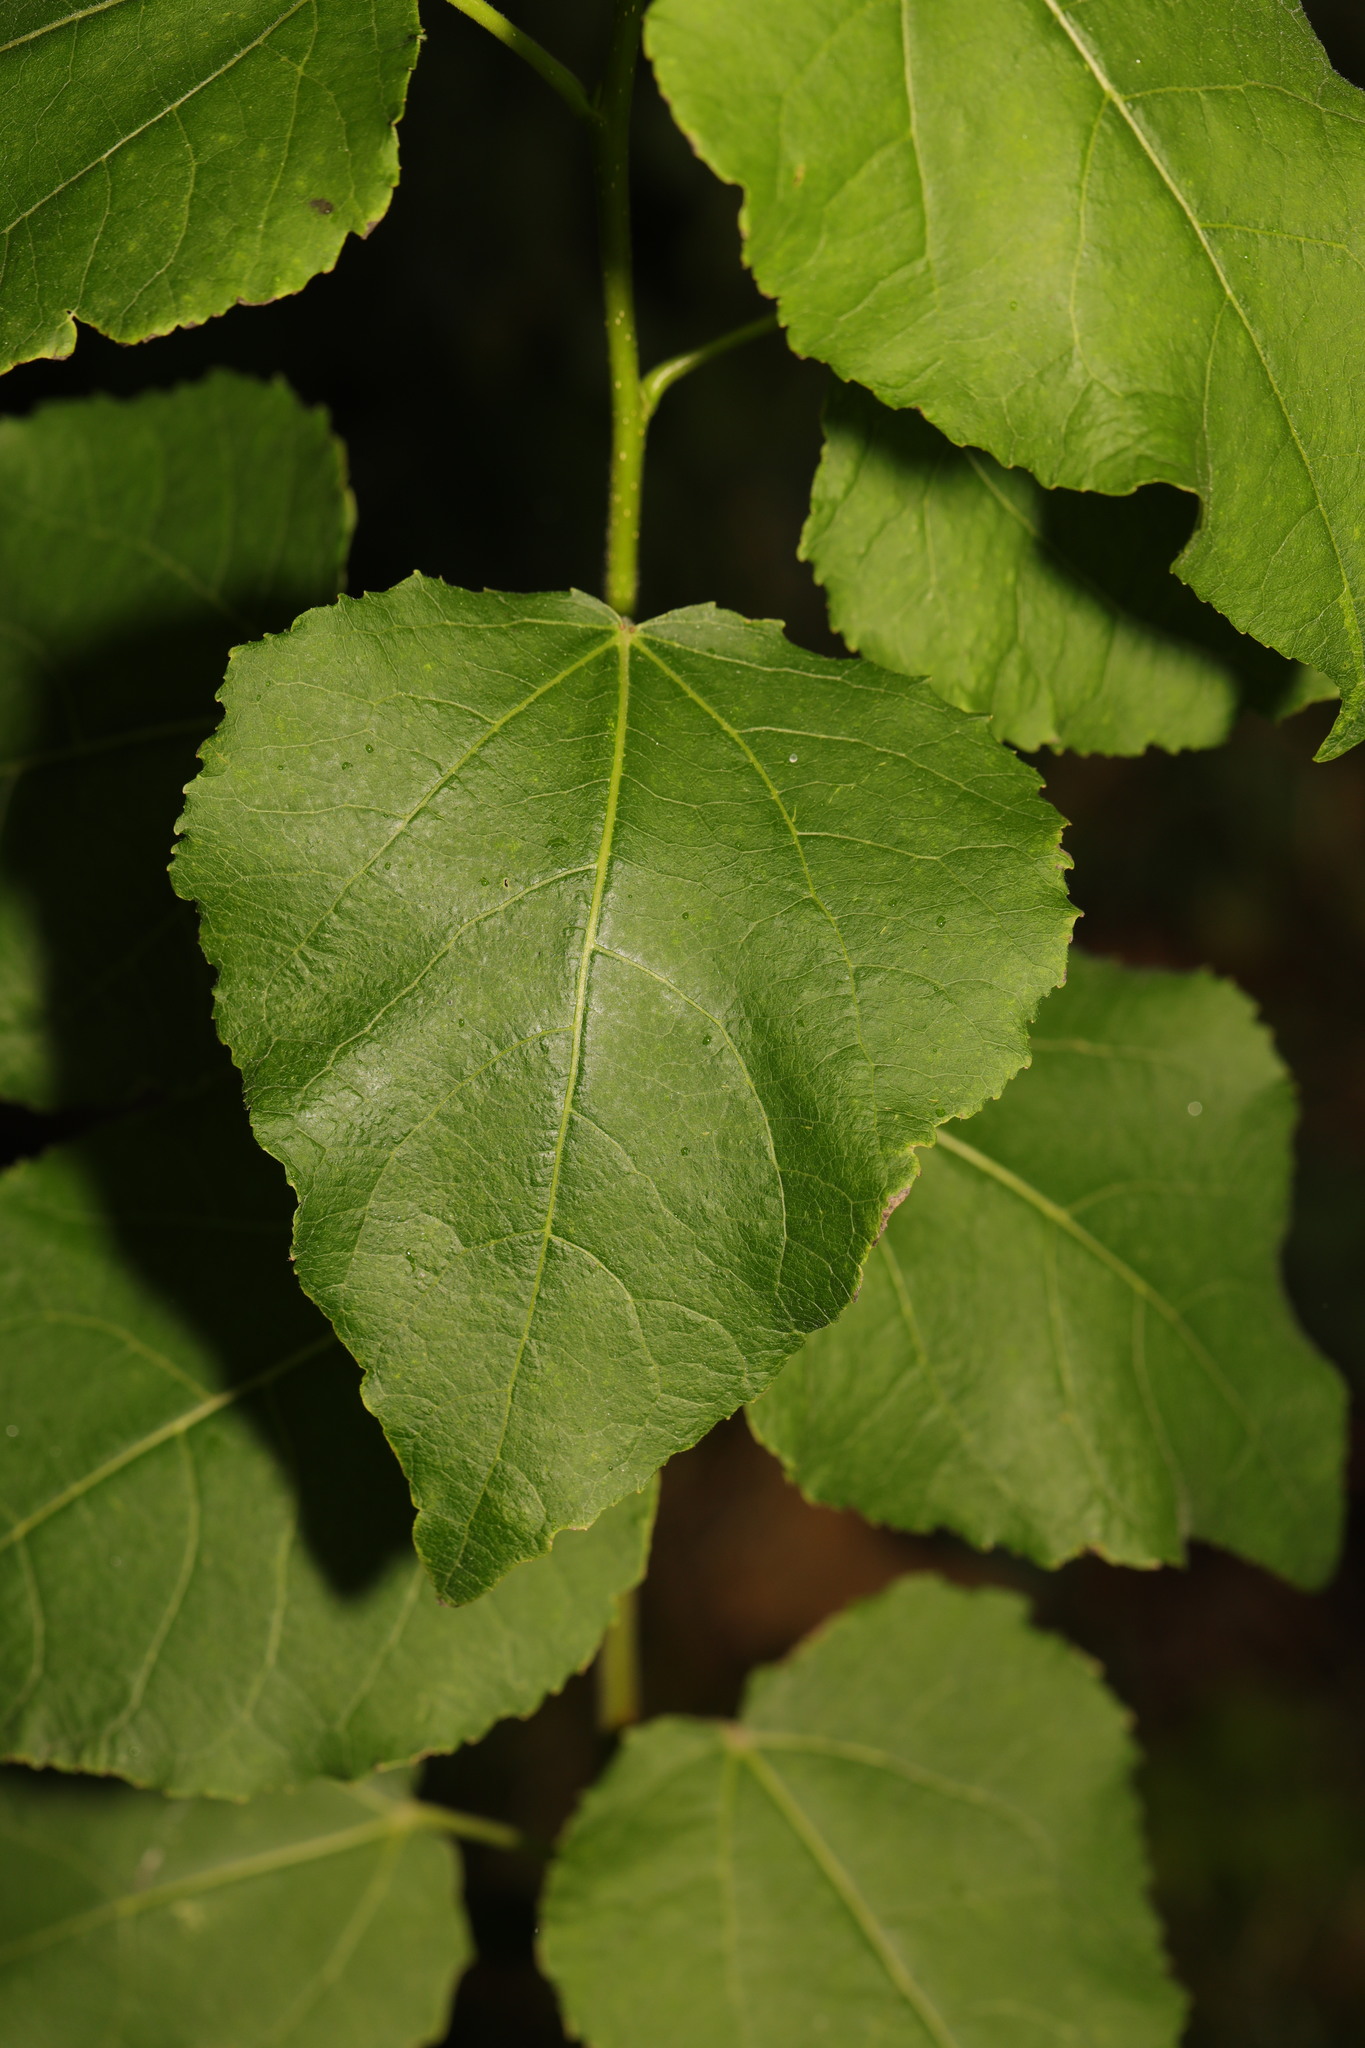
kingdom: Plantae
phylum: Tracheophyta
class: Magnoliopsida
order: Malpighiales
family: Salicaceae
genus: Populus
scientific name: Populus tremula
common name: European aspen
